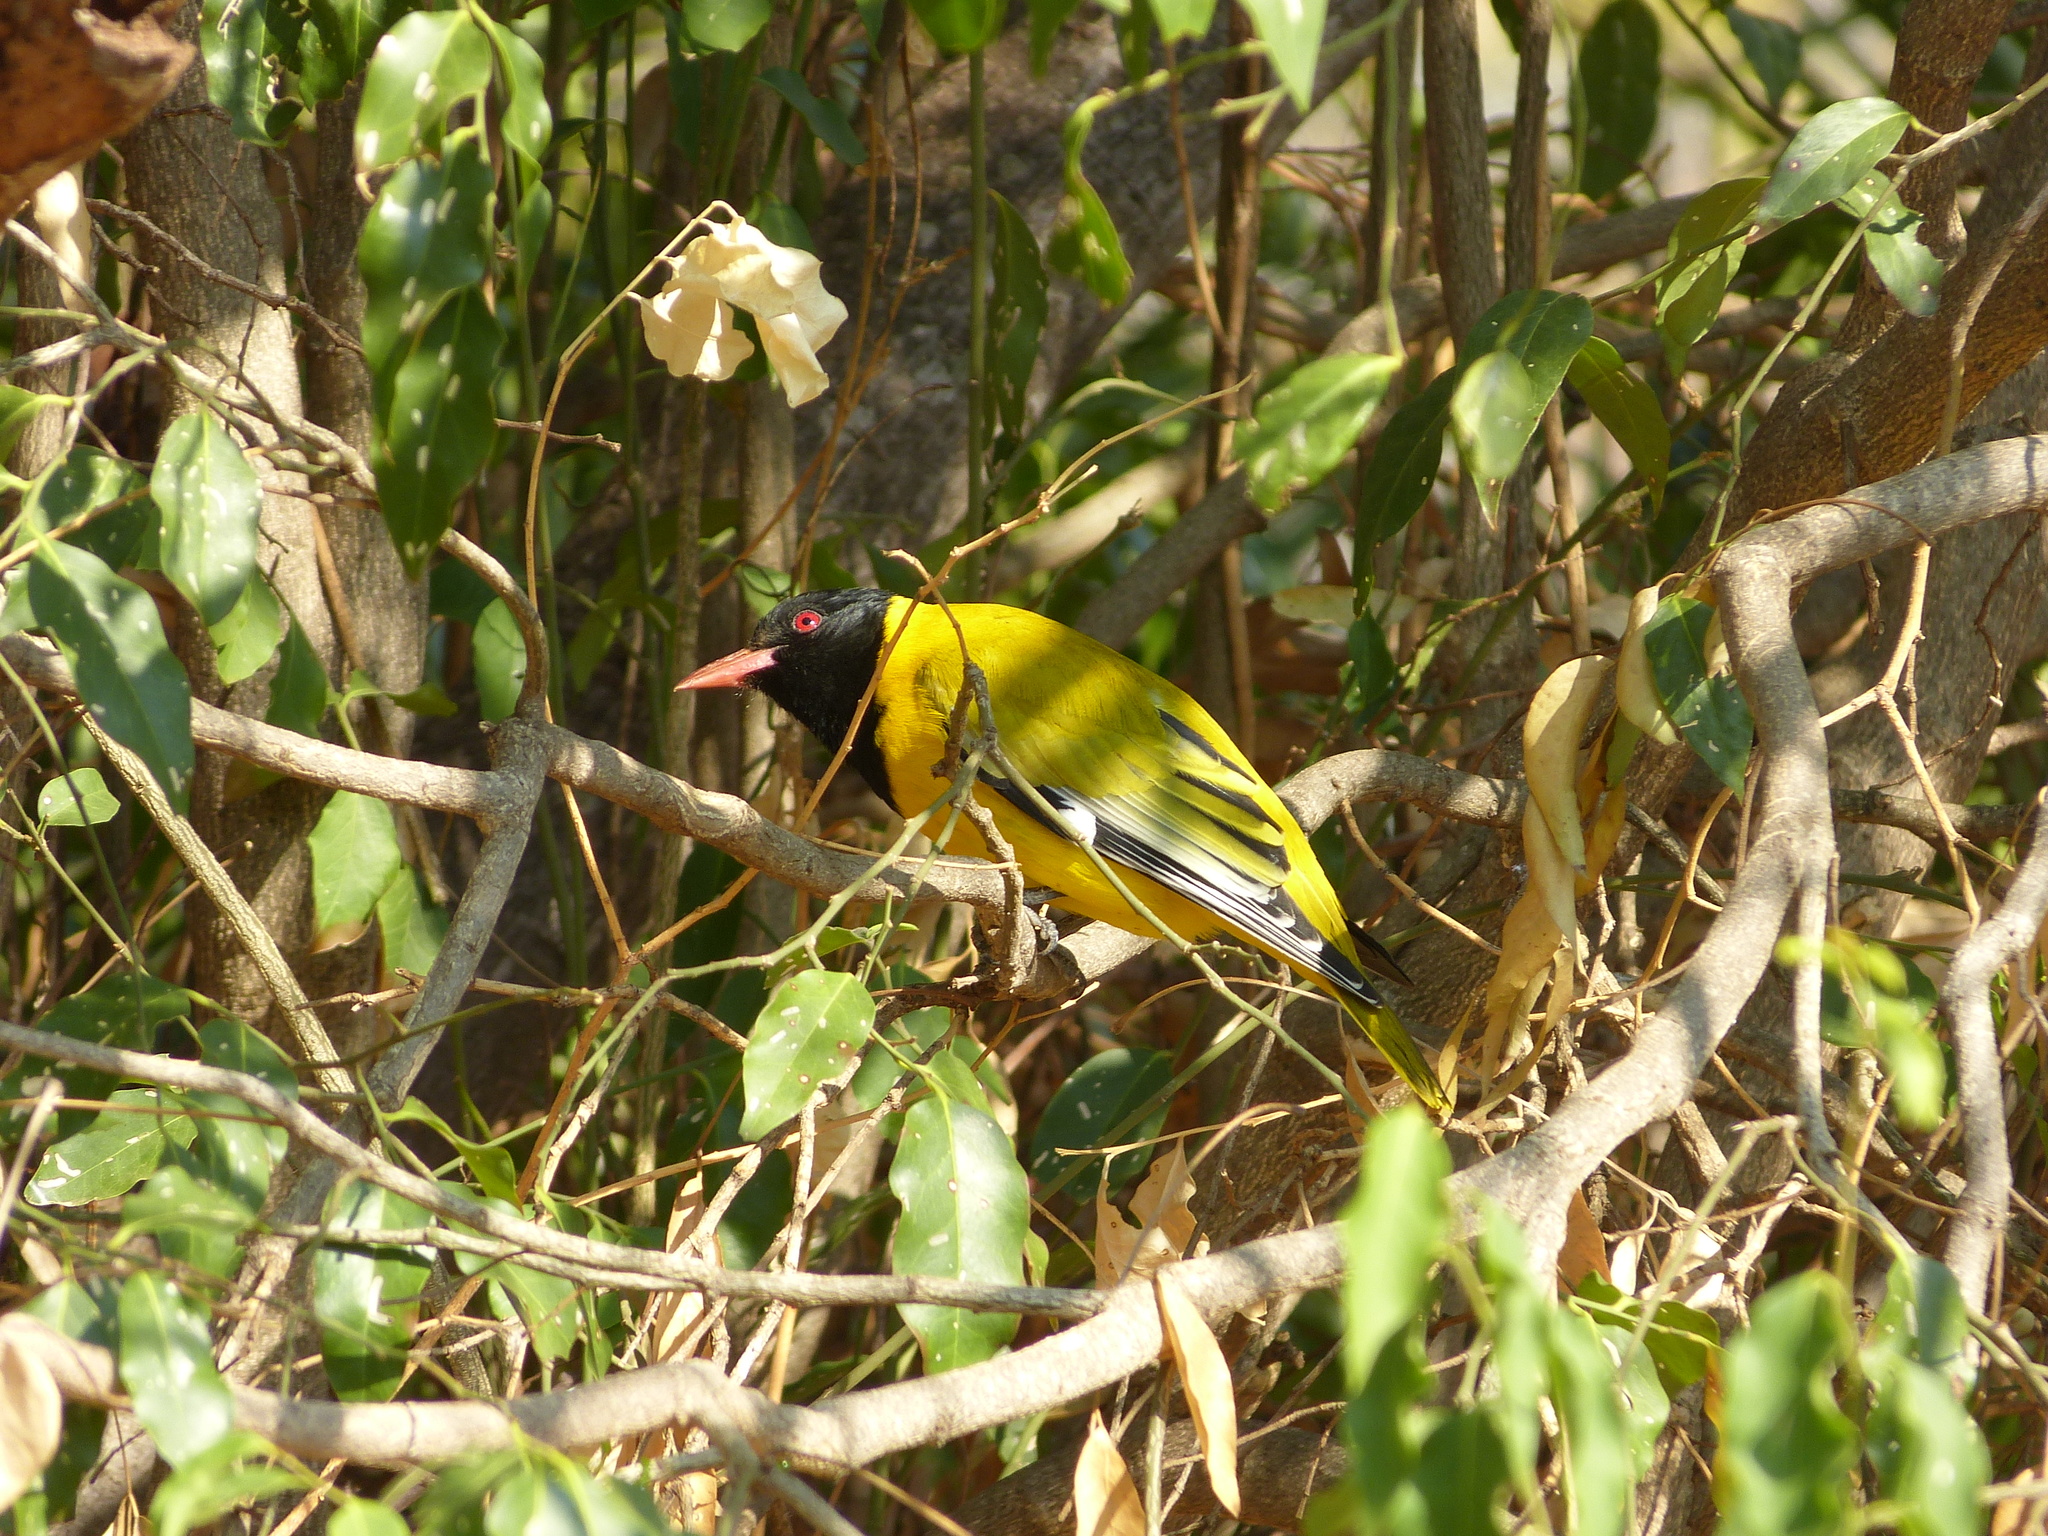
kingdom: Animalia
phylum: Chordata
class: Aves
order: Passeriformes
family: Oriolidae
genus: Oriolus
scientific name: Oriolus larvatus
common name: Black-headed oriole
